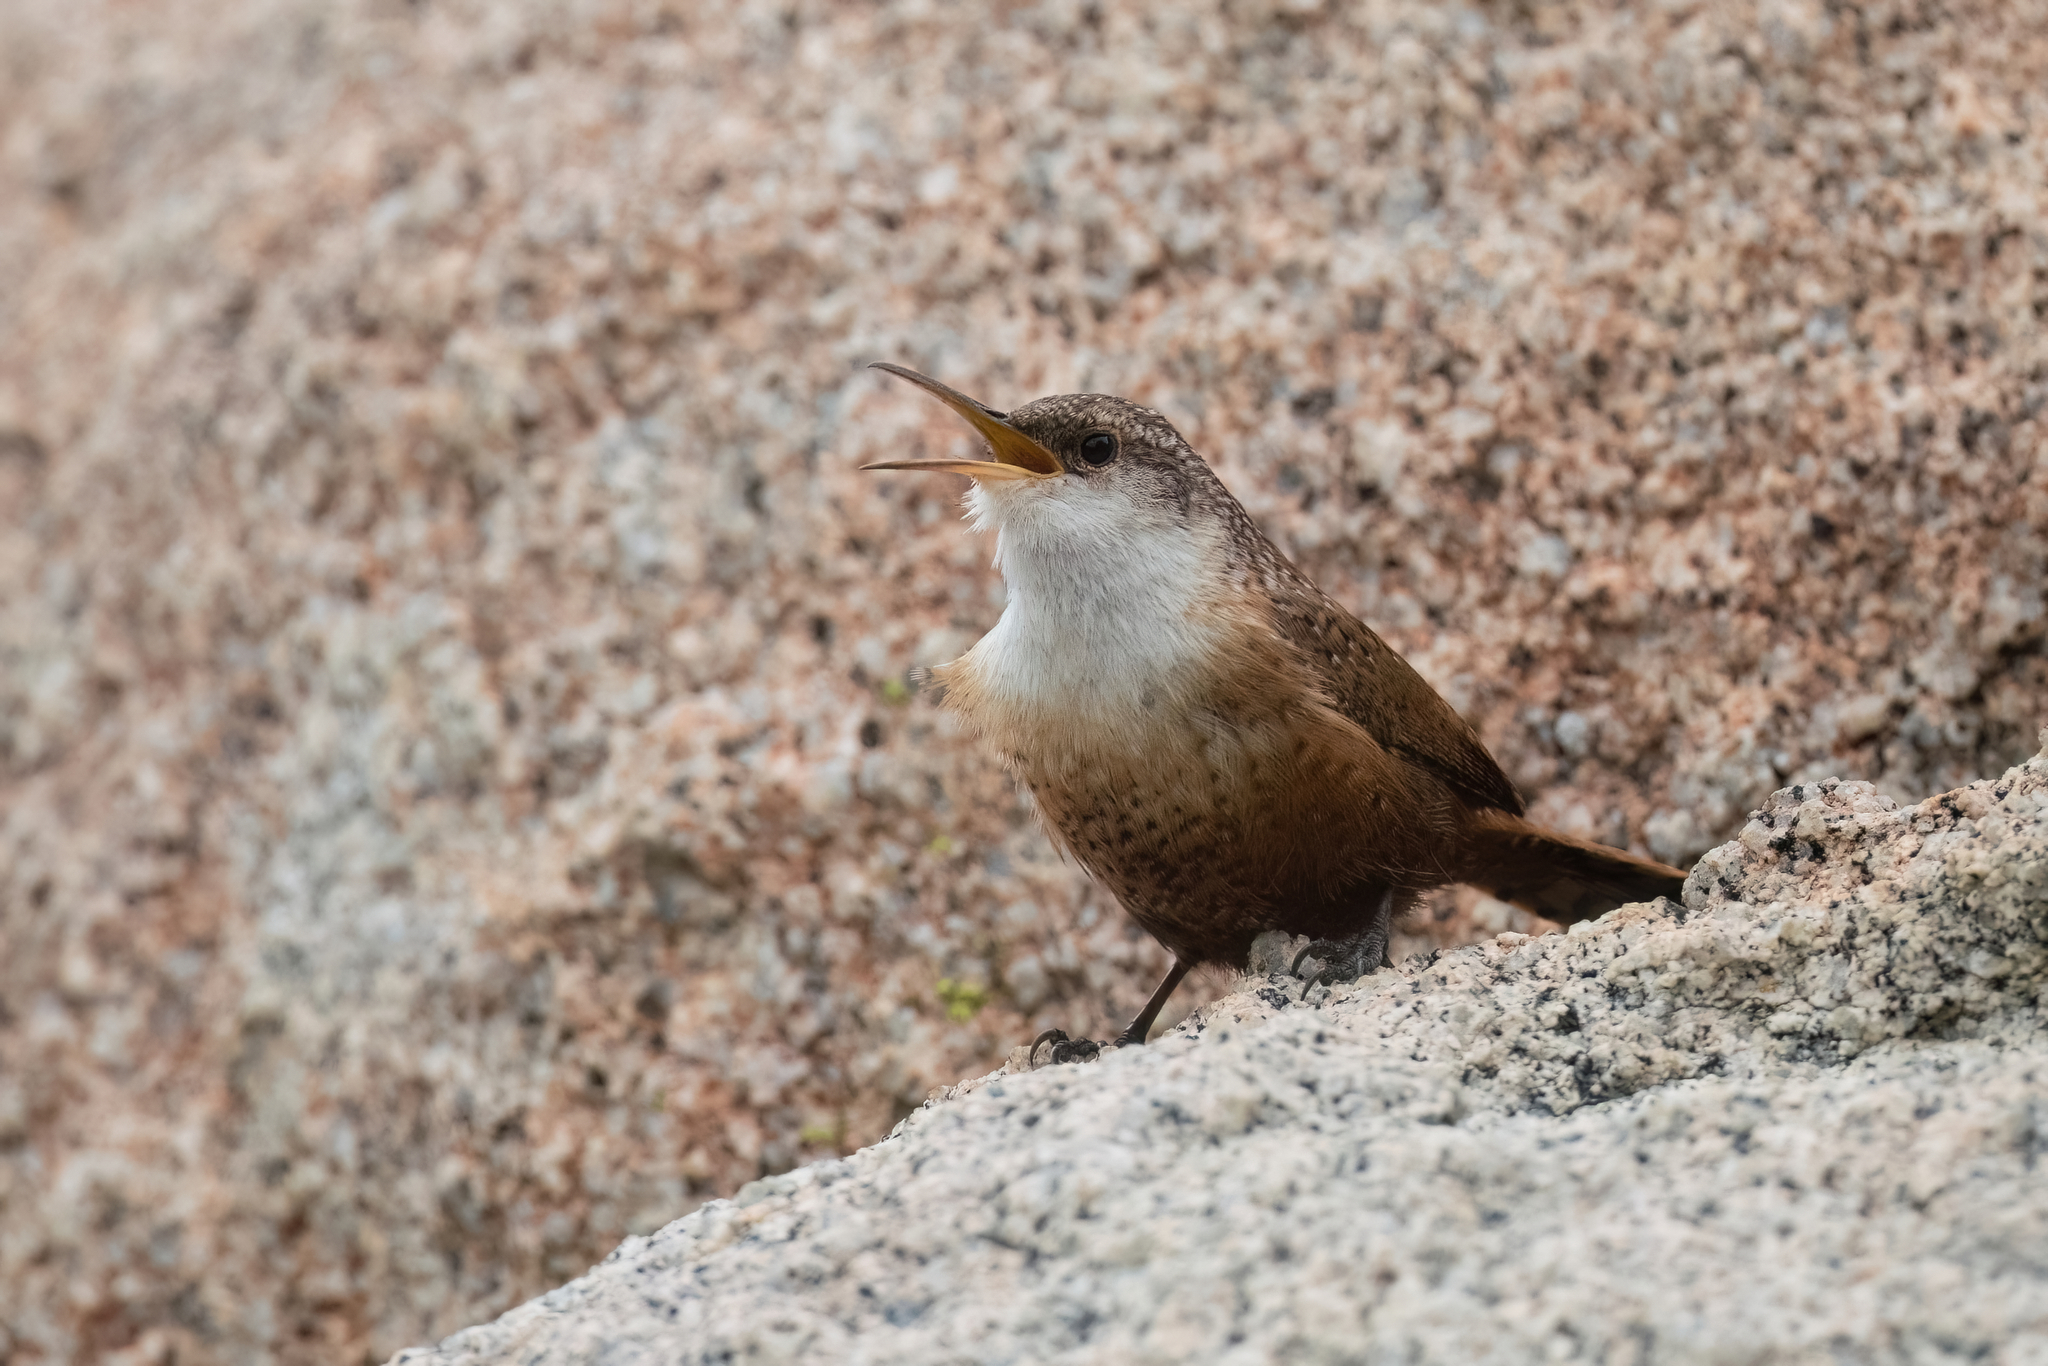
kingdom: Animalia
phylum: Chordata
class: Aves
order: Passeriformes
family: Troglodytidae
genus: Catherpes
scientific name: Catherpes mexicanus
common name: Canyon wren
